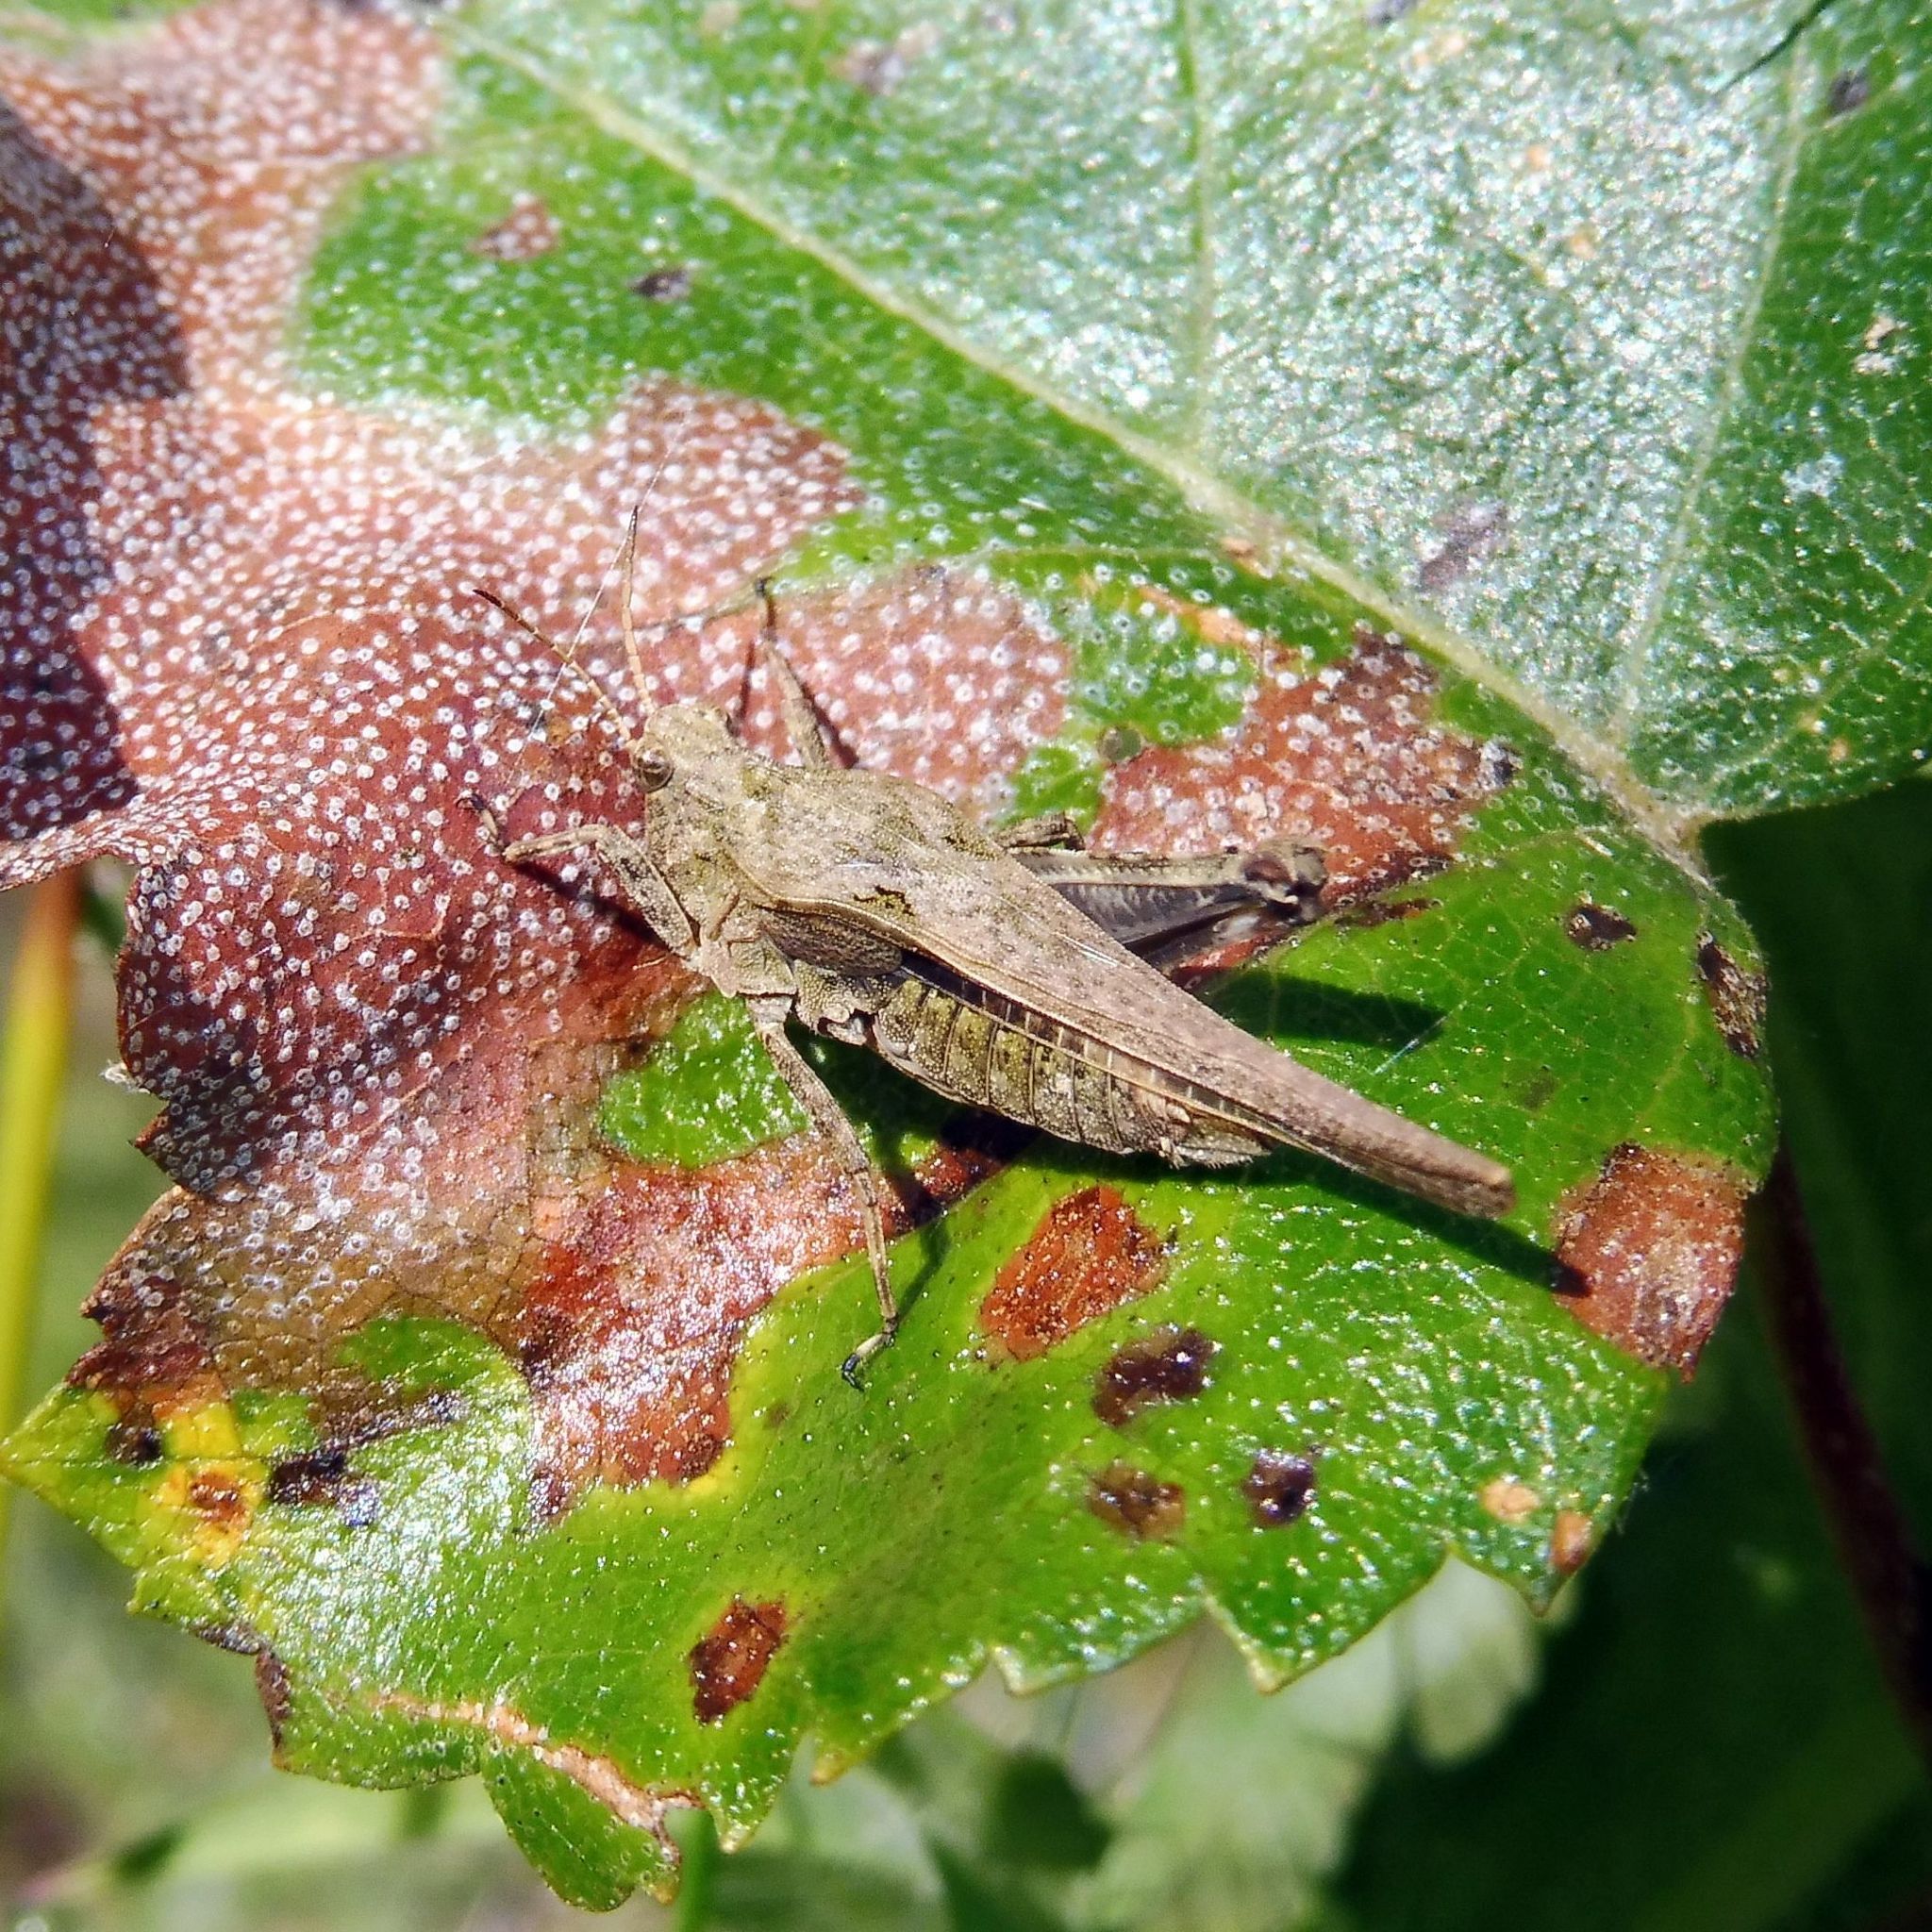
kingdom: Animalia
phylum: Arthropoda
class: Insecta
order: Orthoptera
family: Tetrigidae
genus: Tetrix
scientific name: Tetrix subulata
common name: Slender ground-hopper
